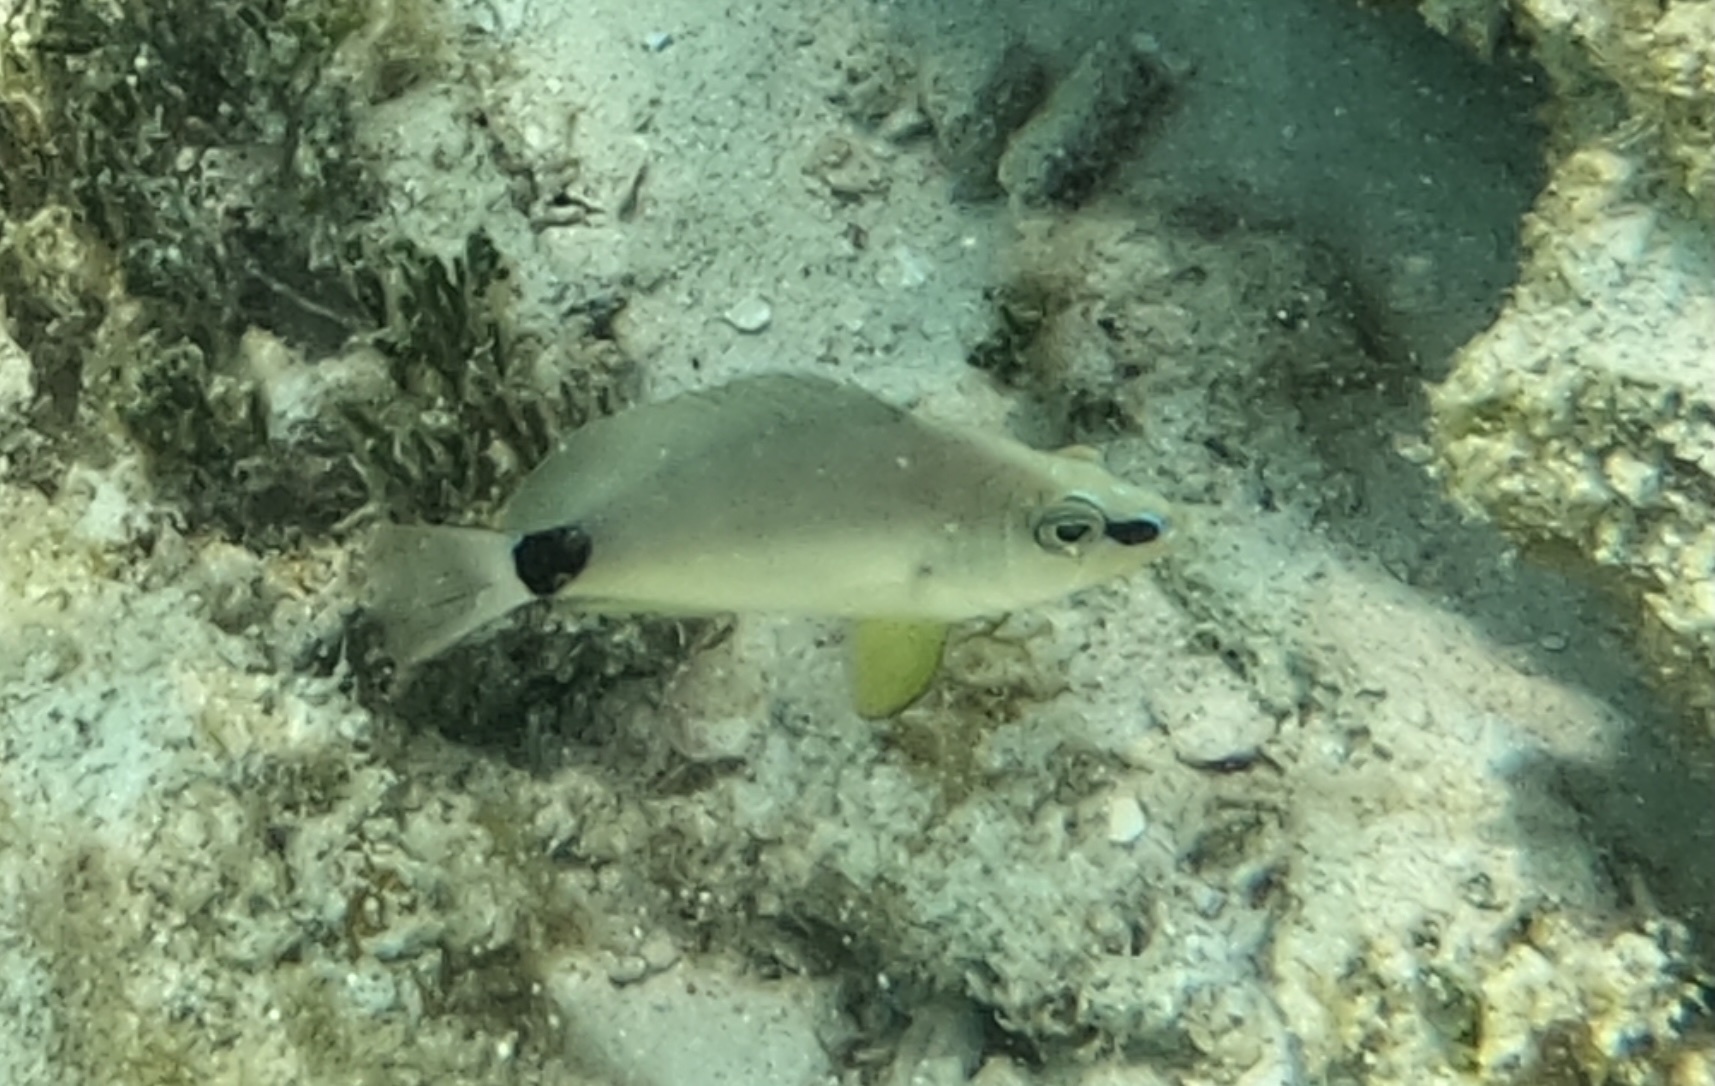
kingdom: Animalia
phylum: Chordata
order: Perciformes
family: Serranidae
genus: Hypoplectrus
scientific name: Hypoplectrus unicolor
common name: Butter hamlet
